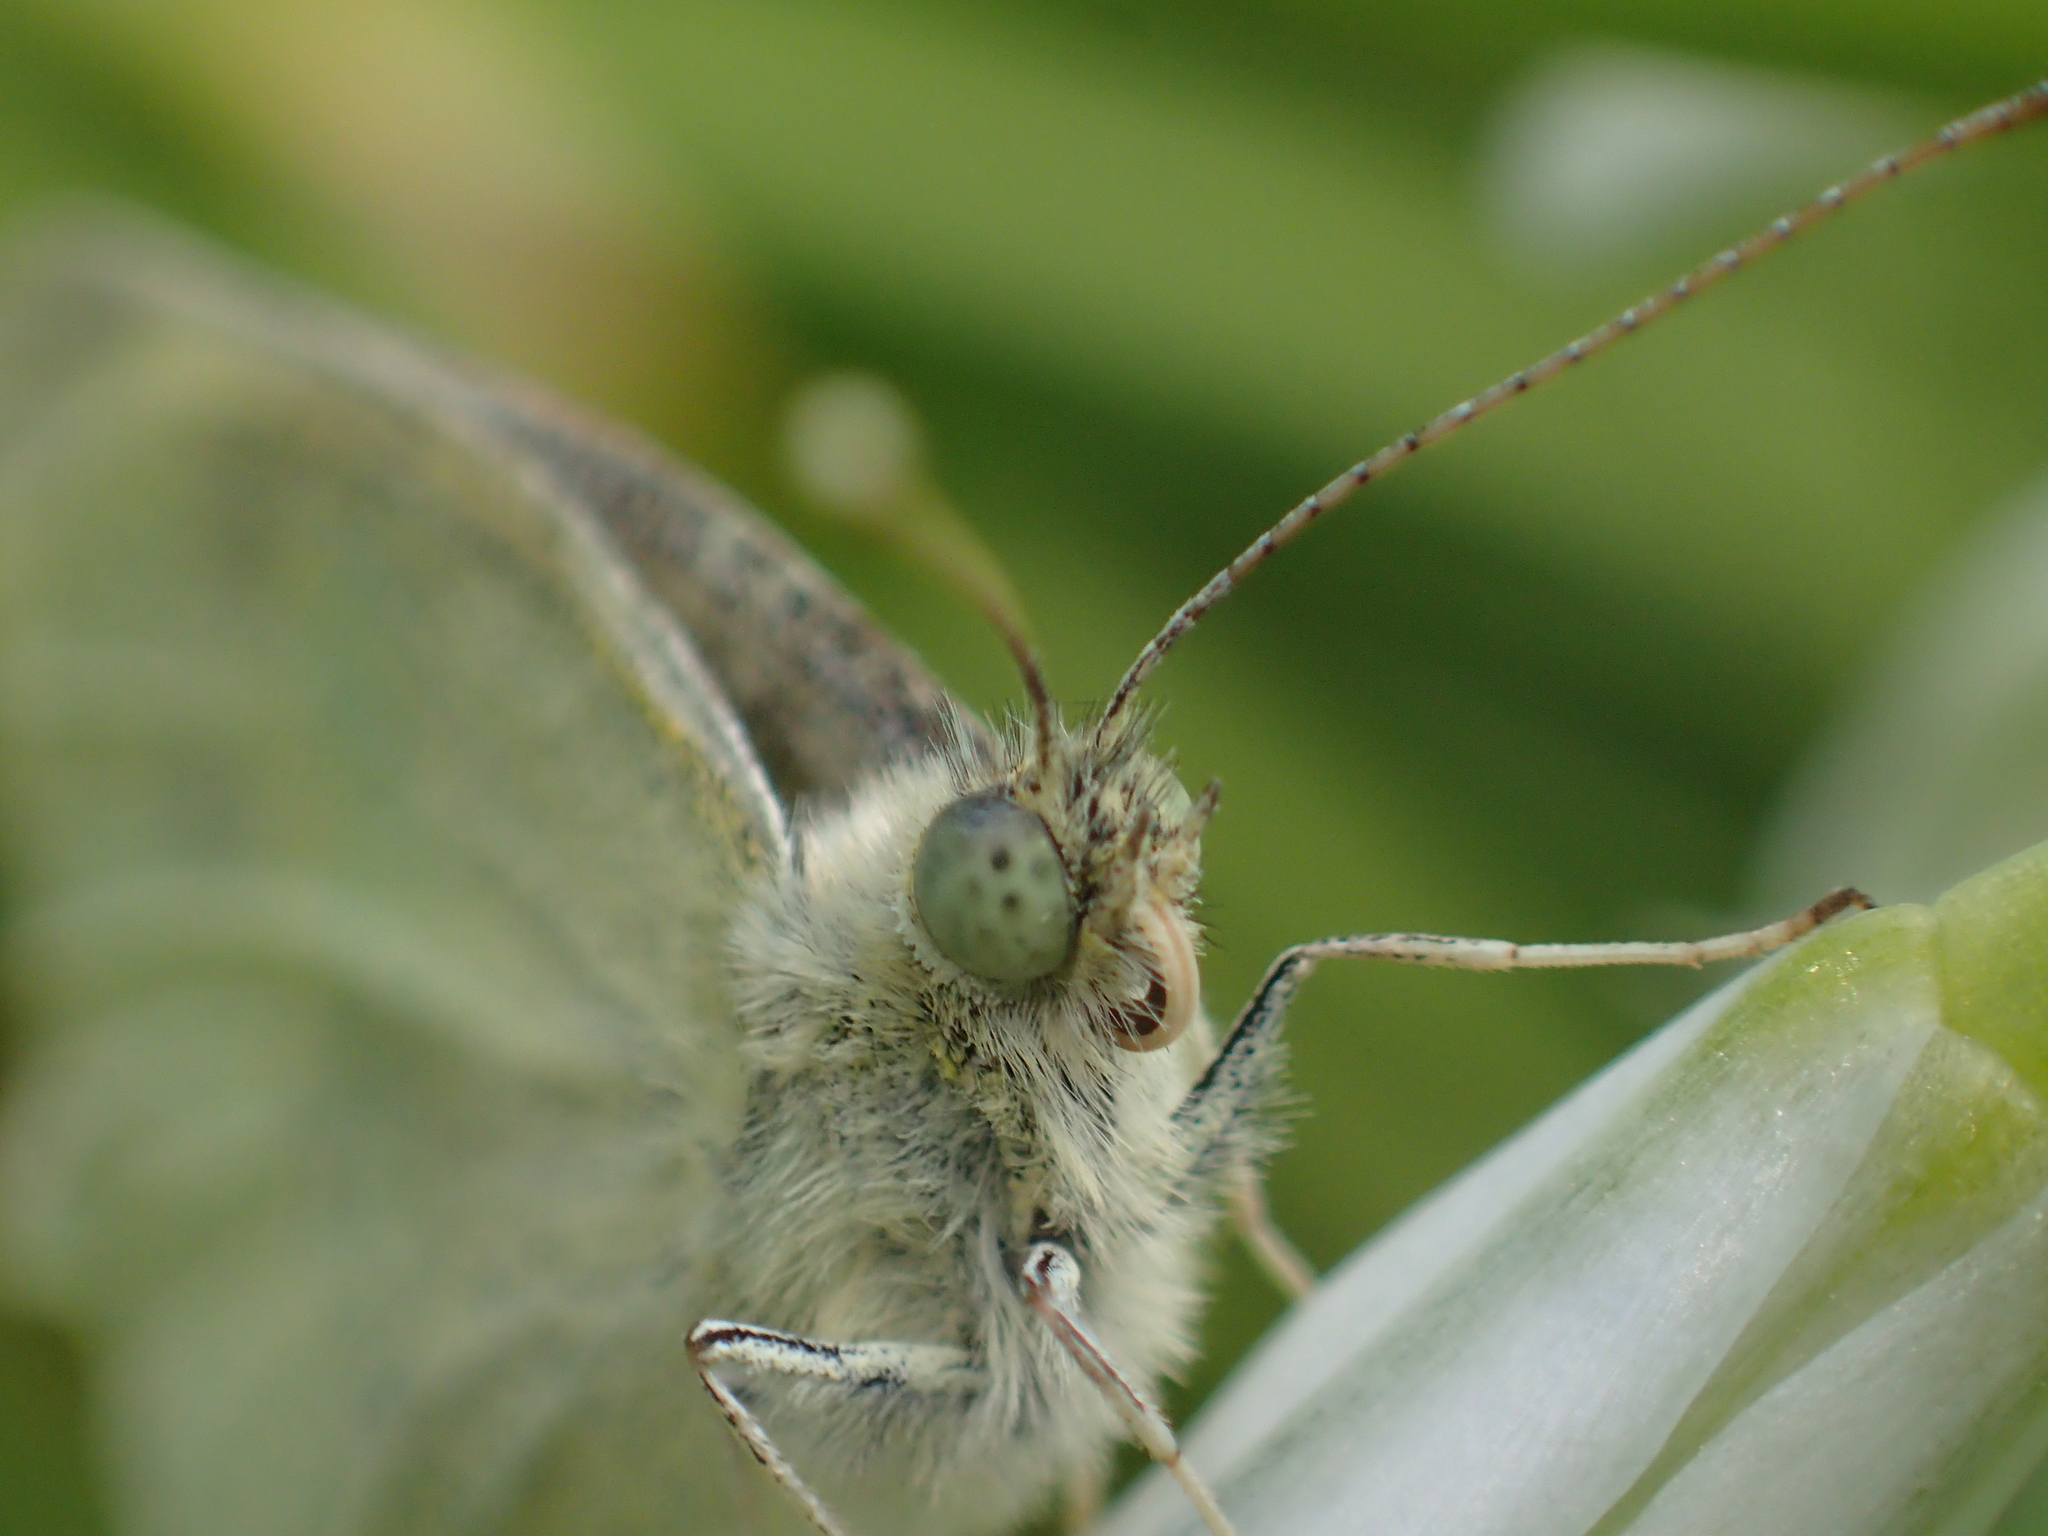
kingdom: Animalia
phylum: Arthropoda
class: Insecta
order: Lepidoptera
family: Pieridae
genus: Pieris
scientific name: Pieris rapae
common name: Small white
